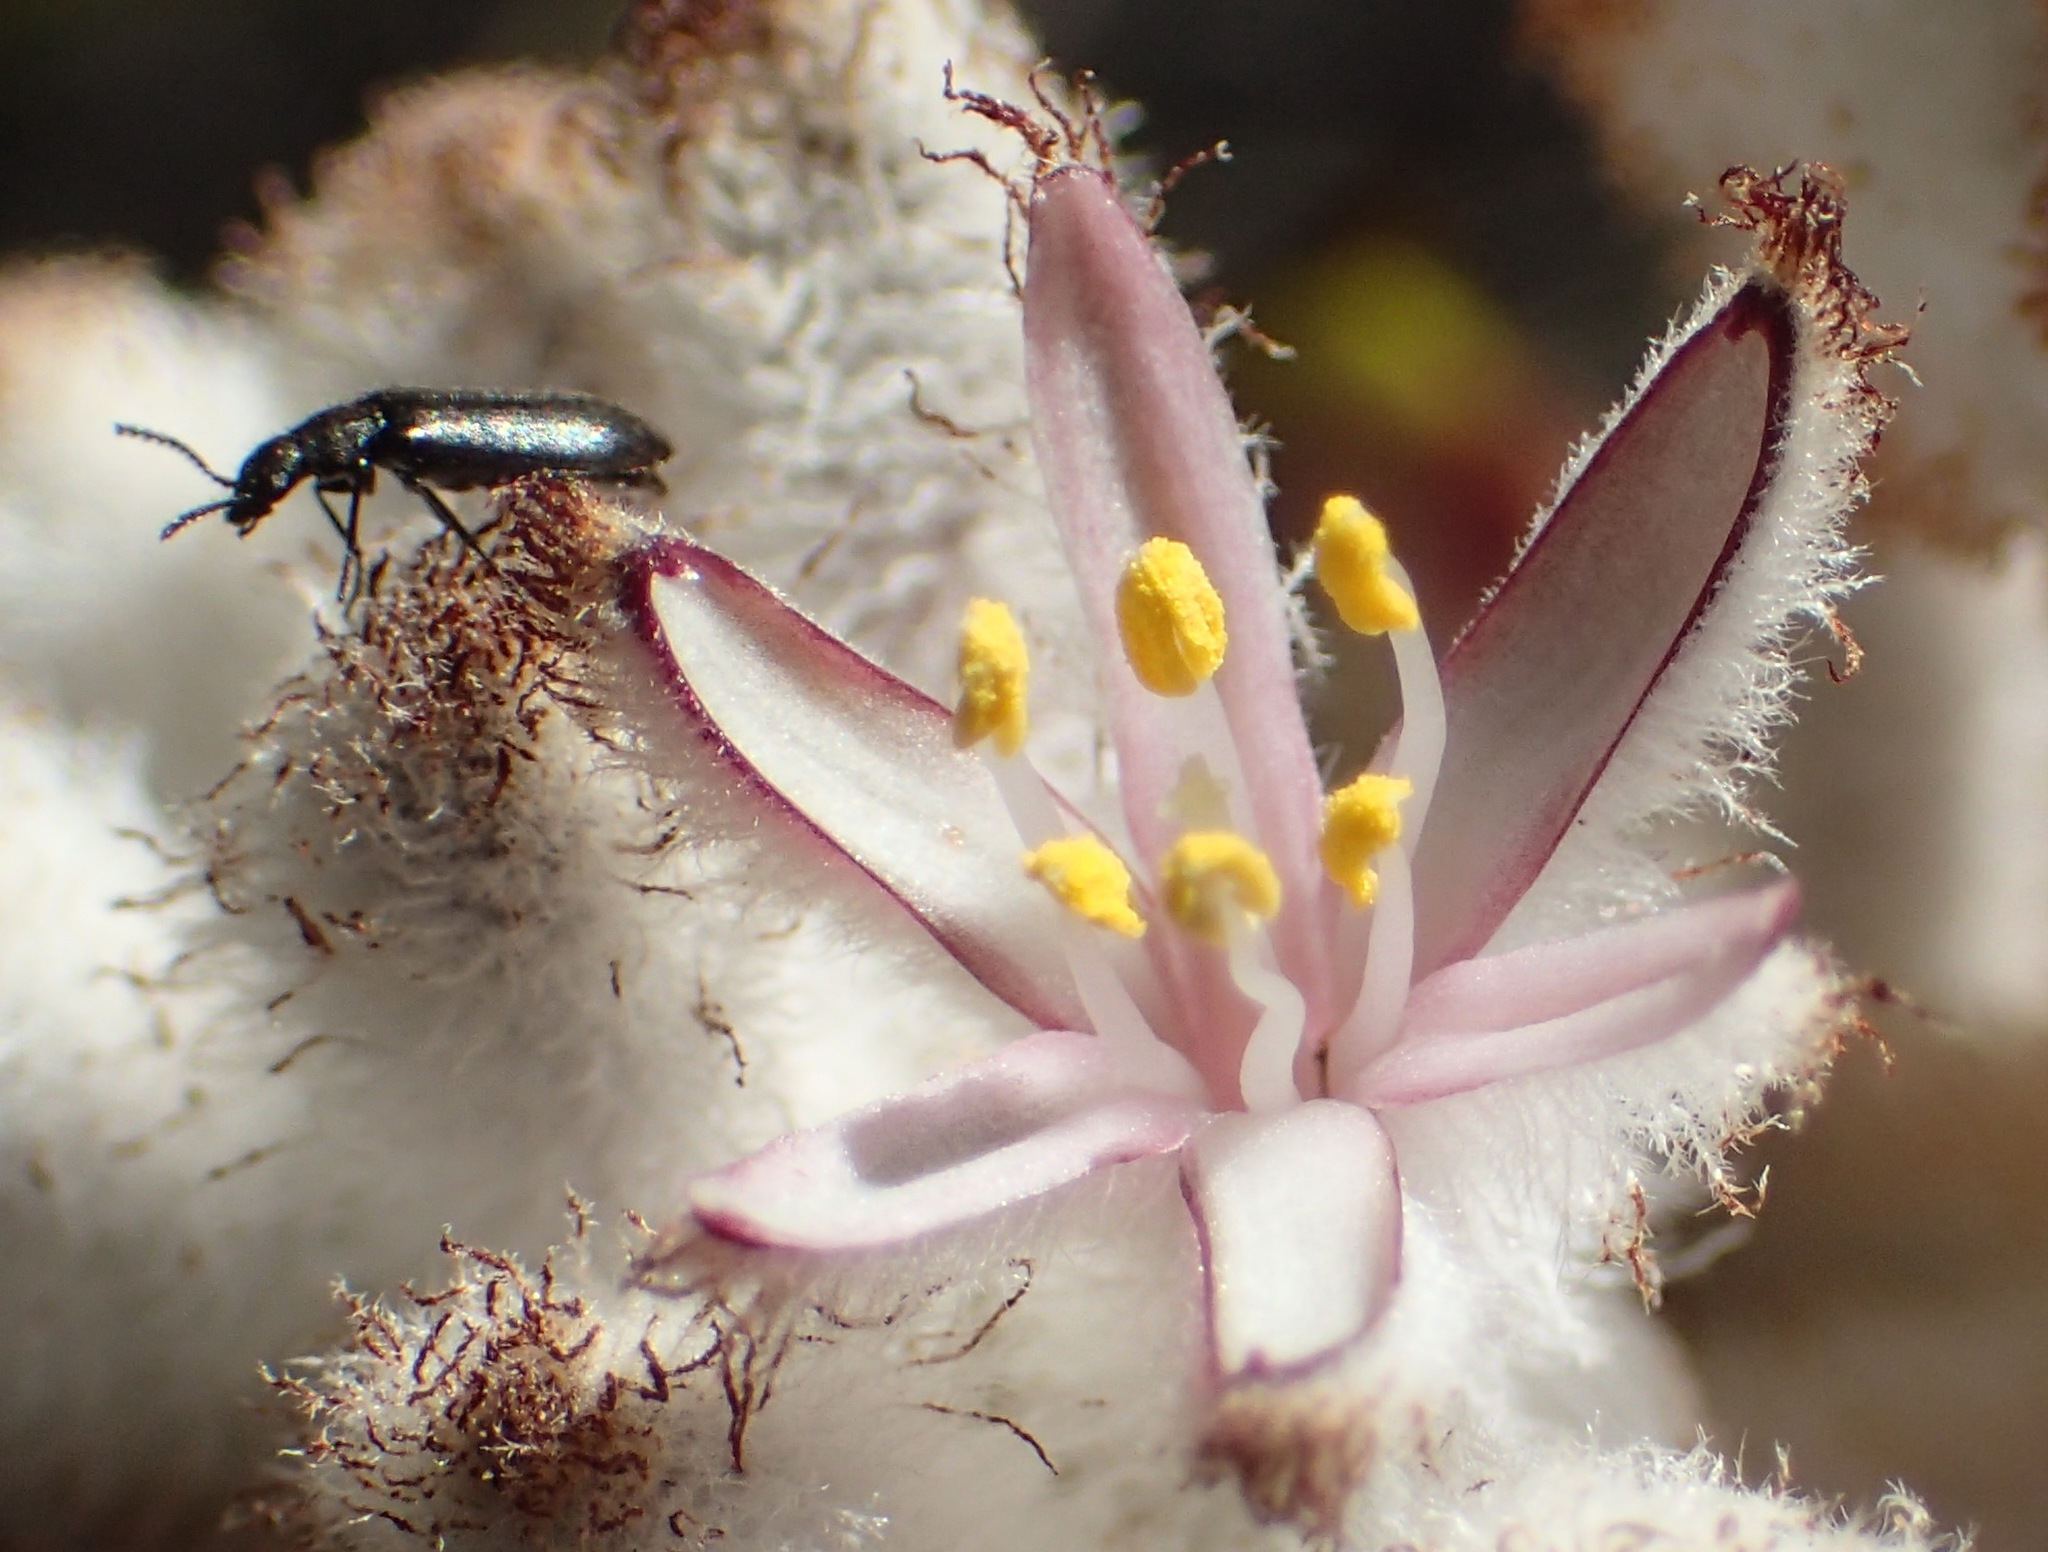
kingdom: Plantae
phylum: Tracheophyta
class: Liliopsida
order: Asparagales
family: Lanariaceae
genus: Lanaria
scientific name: Lanaria lanata
